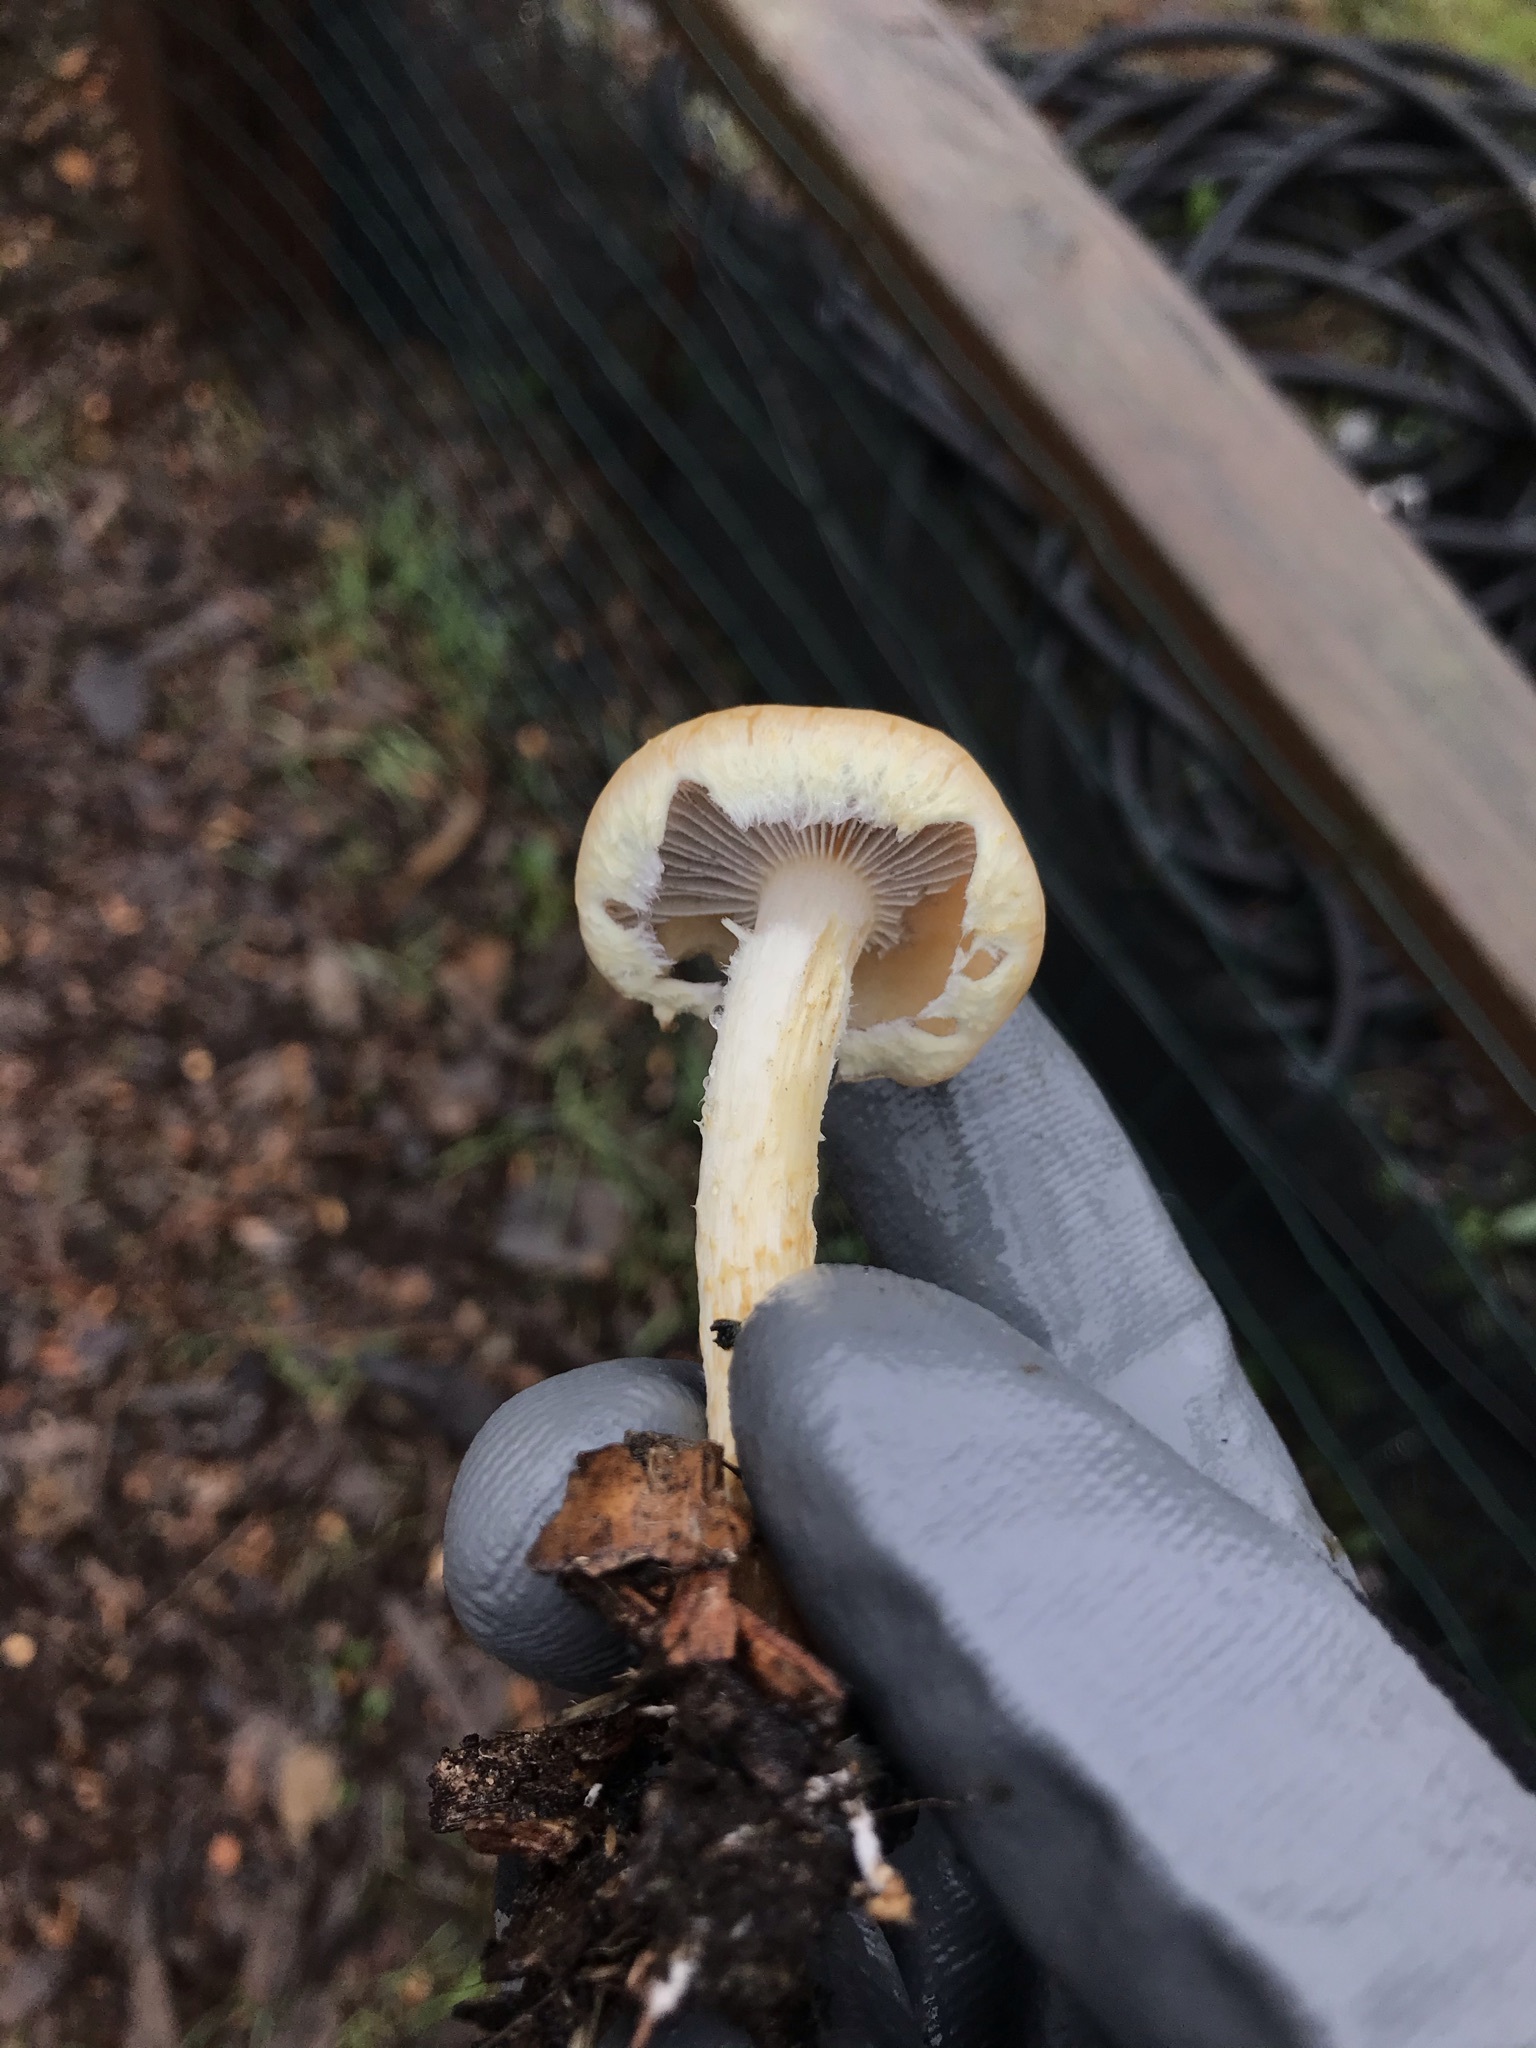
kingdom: Fungi
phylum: Basidiomycota
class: Agaricomycetes
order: Agaricales
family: Strophariaceae
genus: Leratiomyces
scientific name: Leratiomyces percevalii
